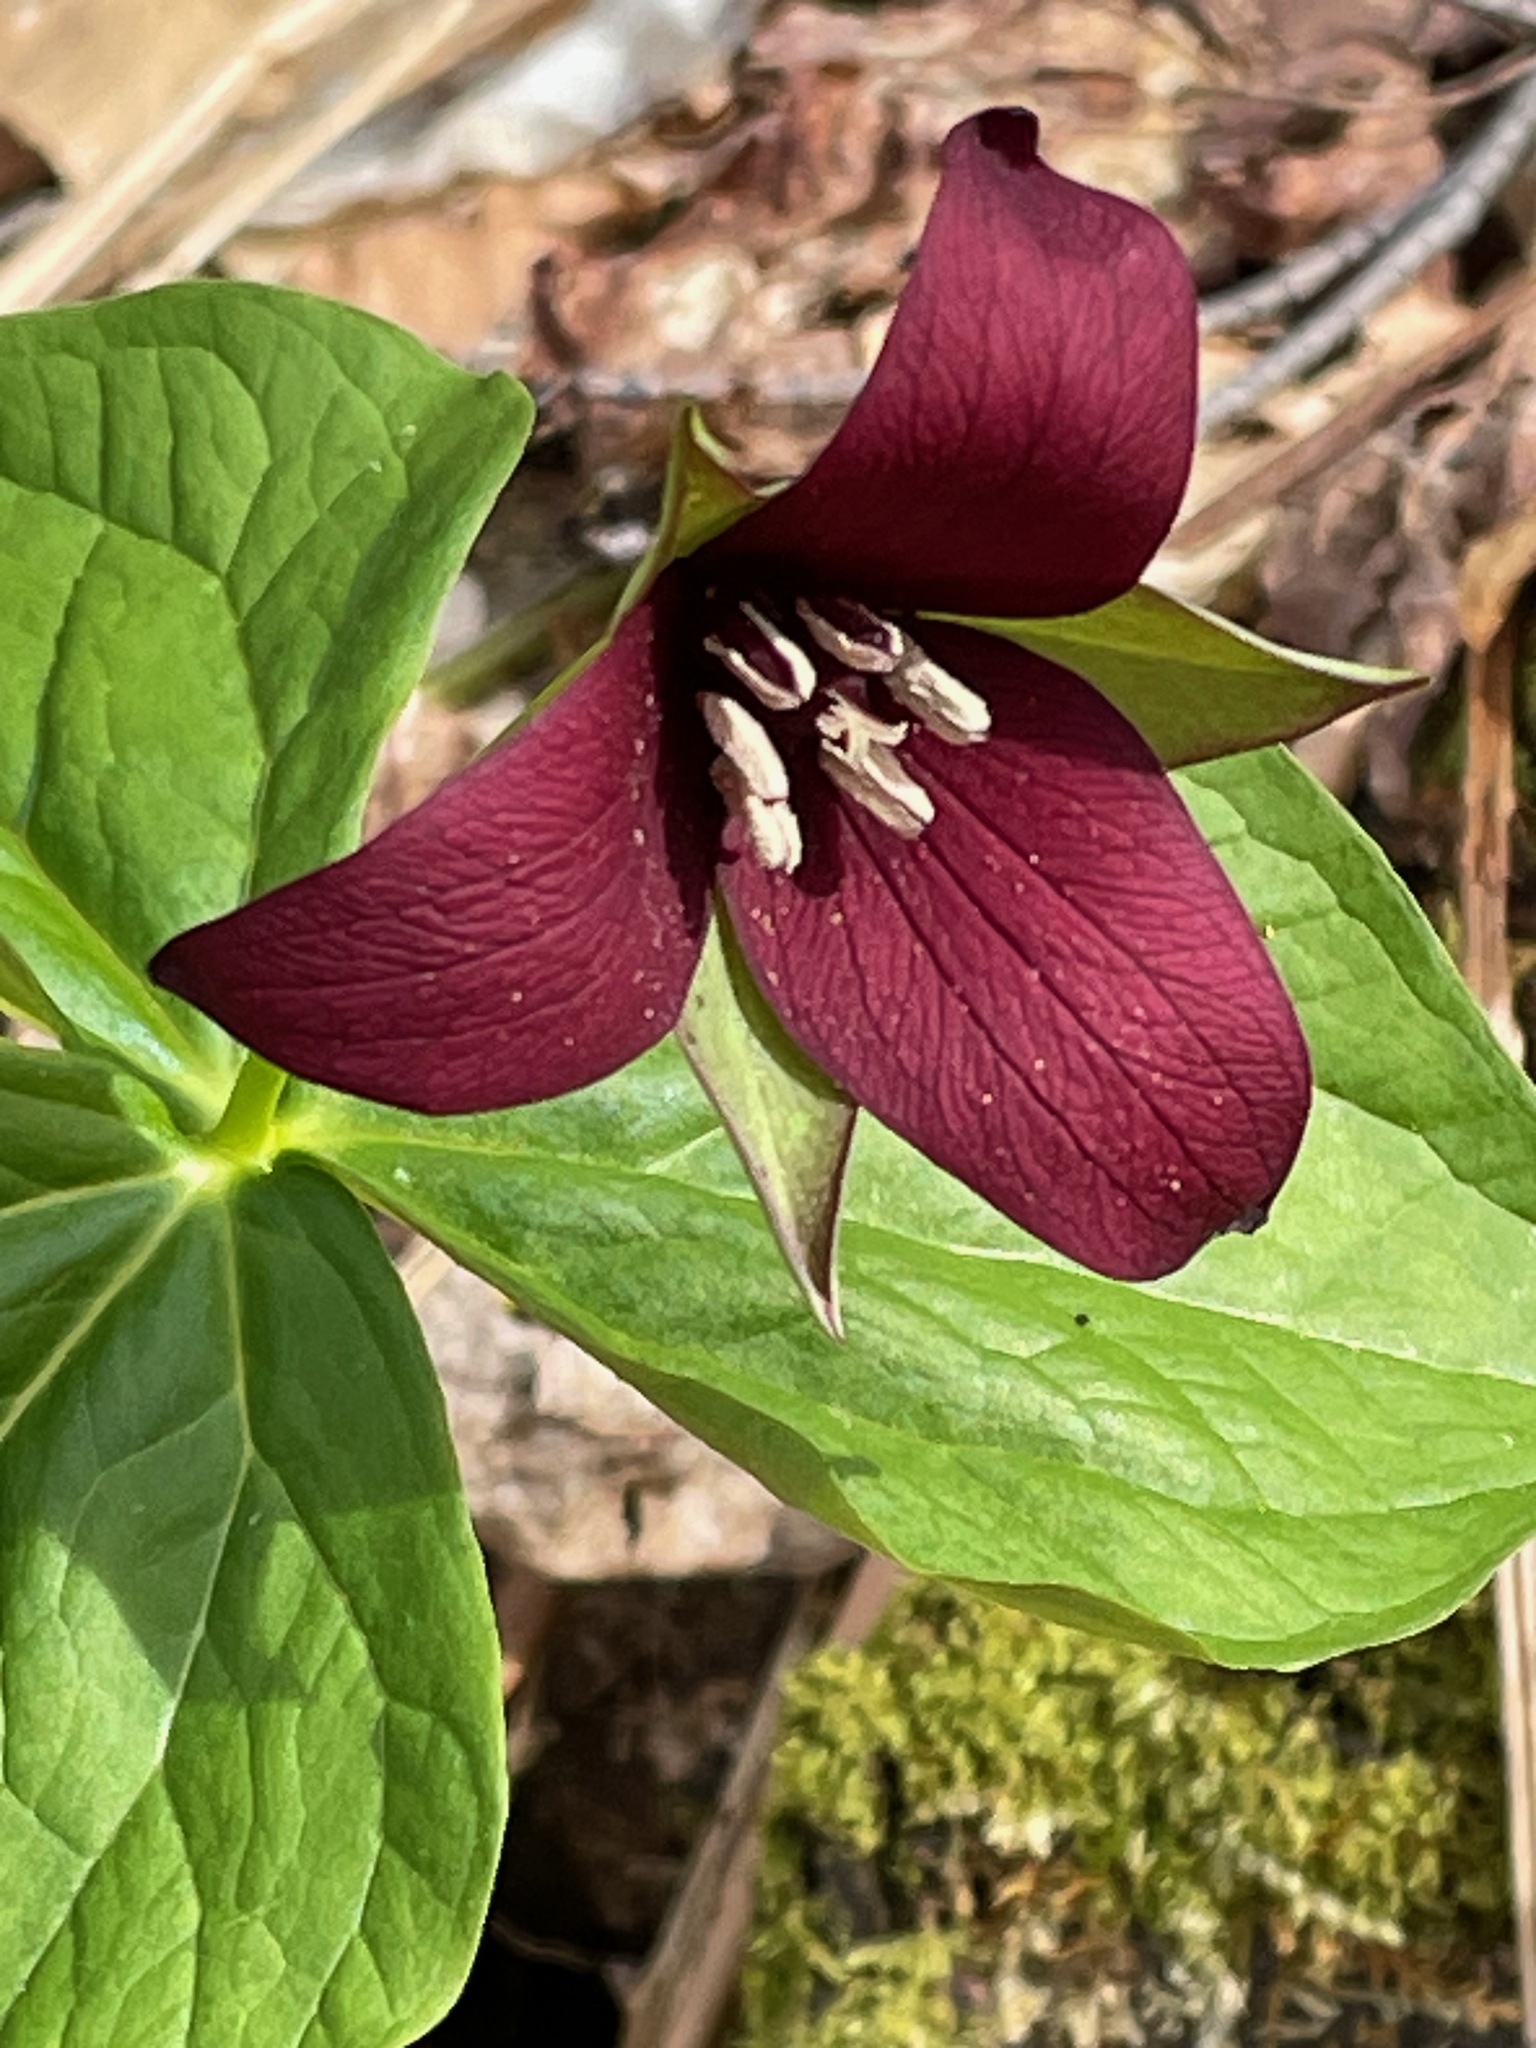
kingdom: Plantae
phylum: Tracheophyta
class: Liliopsida
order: Liliales
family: Melanthiaceae
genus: Trillium
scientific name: Trillium erectum
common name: Purple trillium
